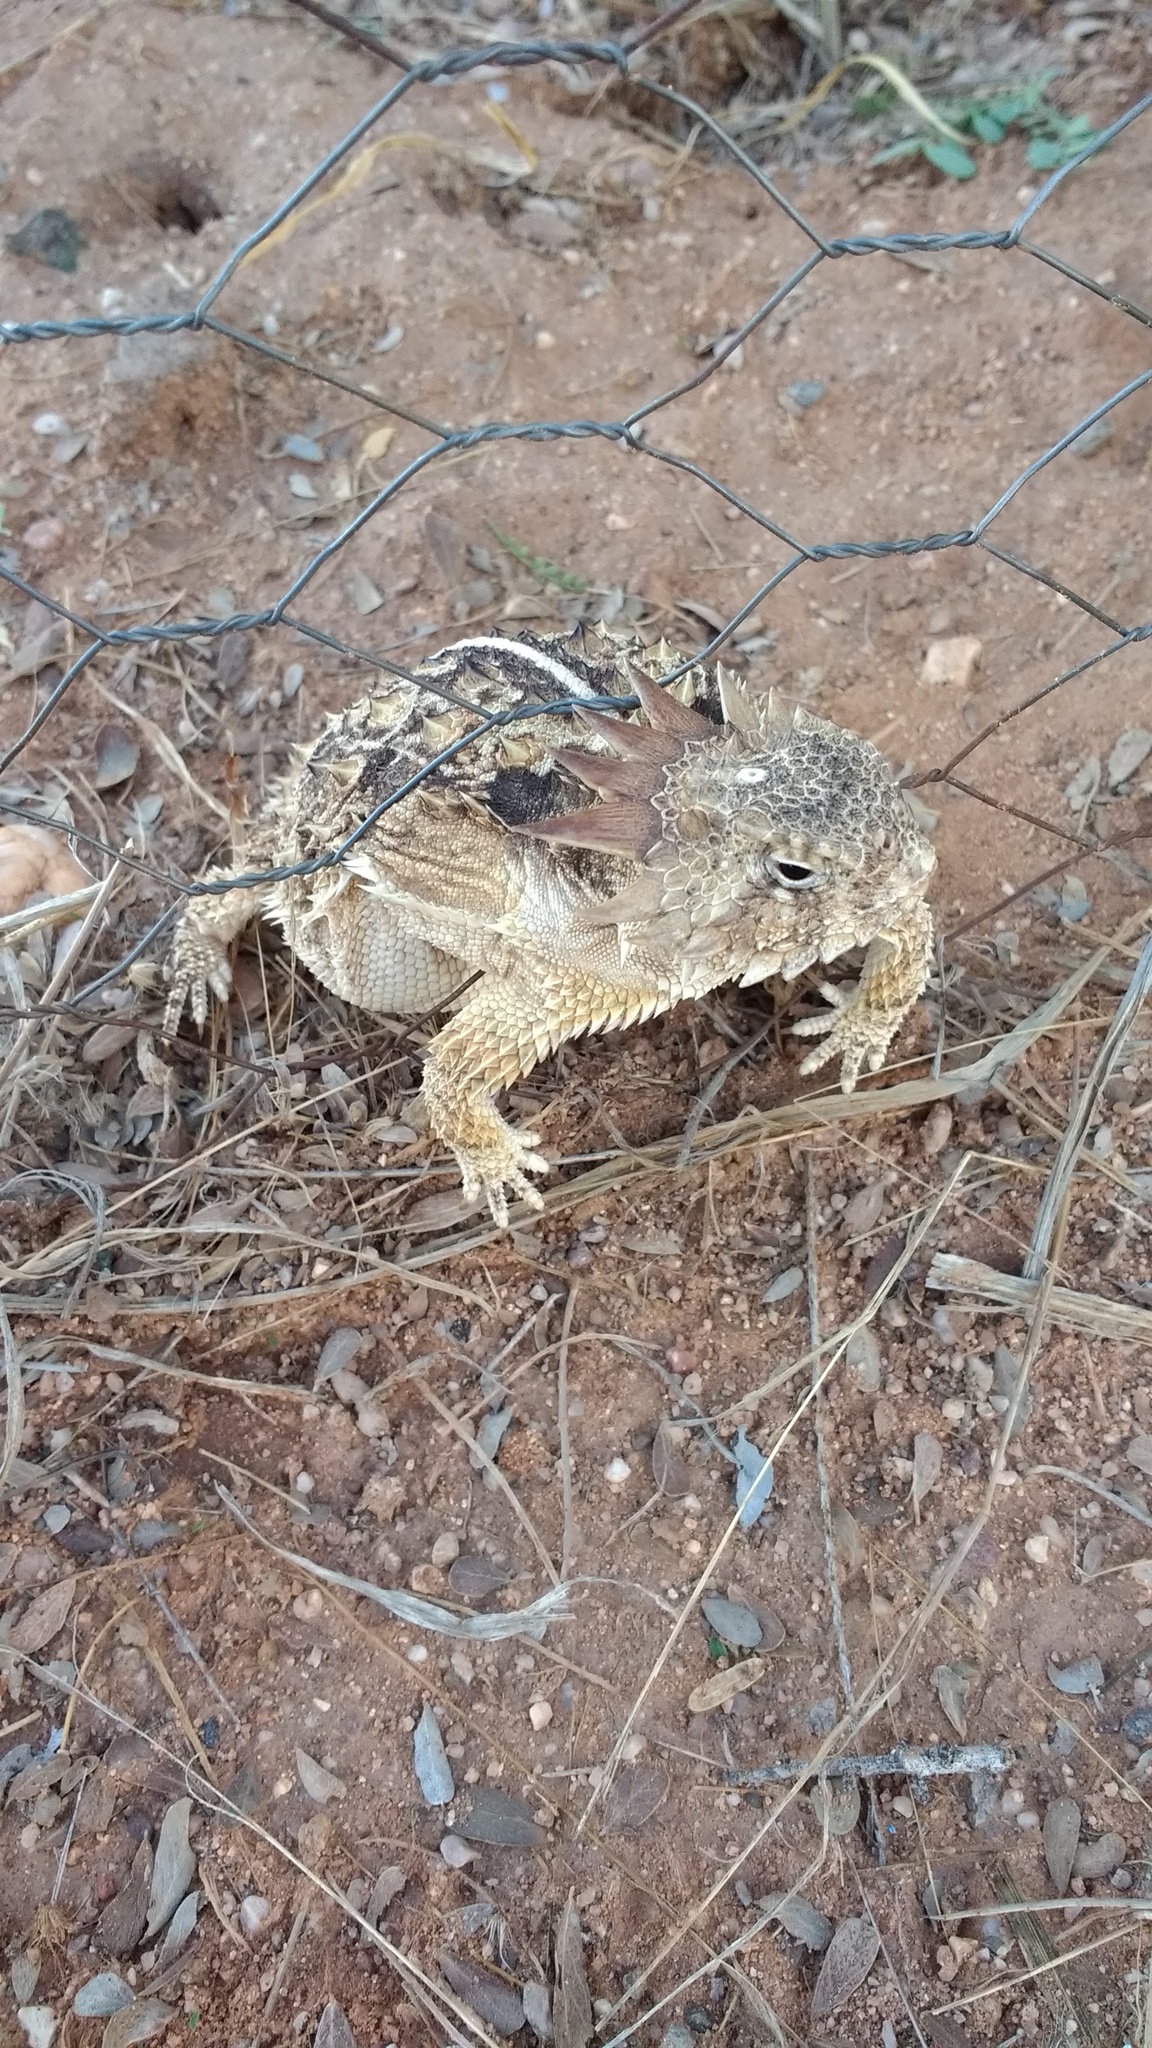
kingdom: Animalia
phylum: Chordata
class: Squamata
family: Phrynosomatidae
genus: Phrynosoma
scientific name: Phrynosoma solare
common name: Regal horned lizard
